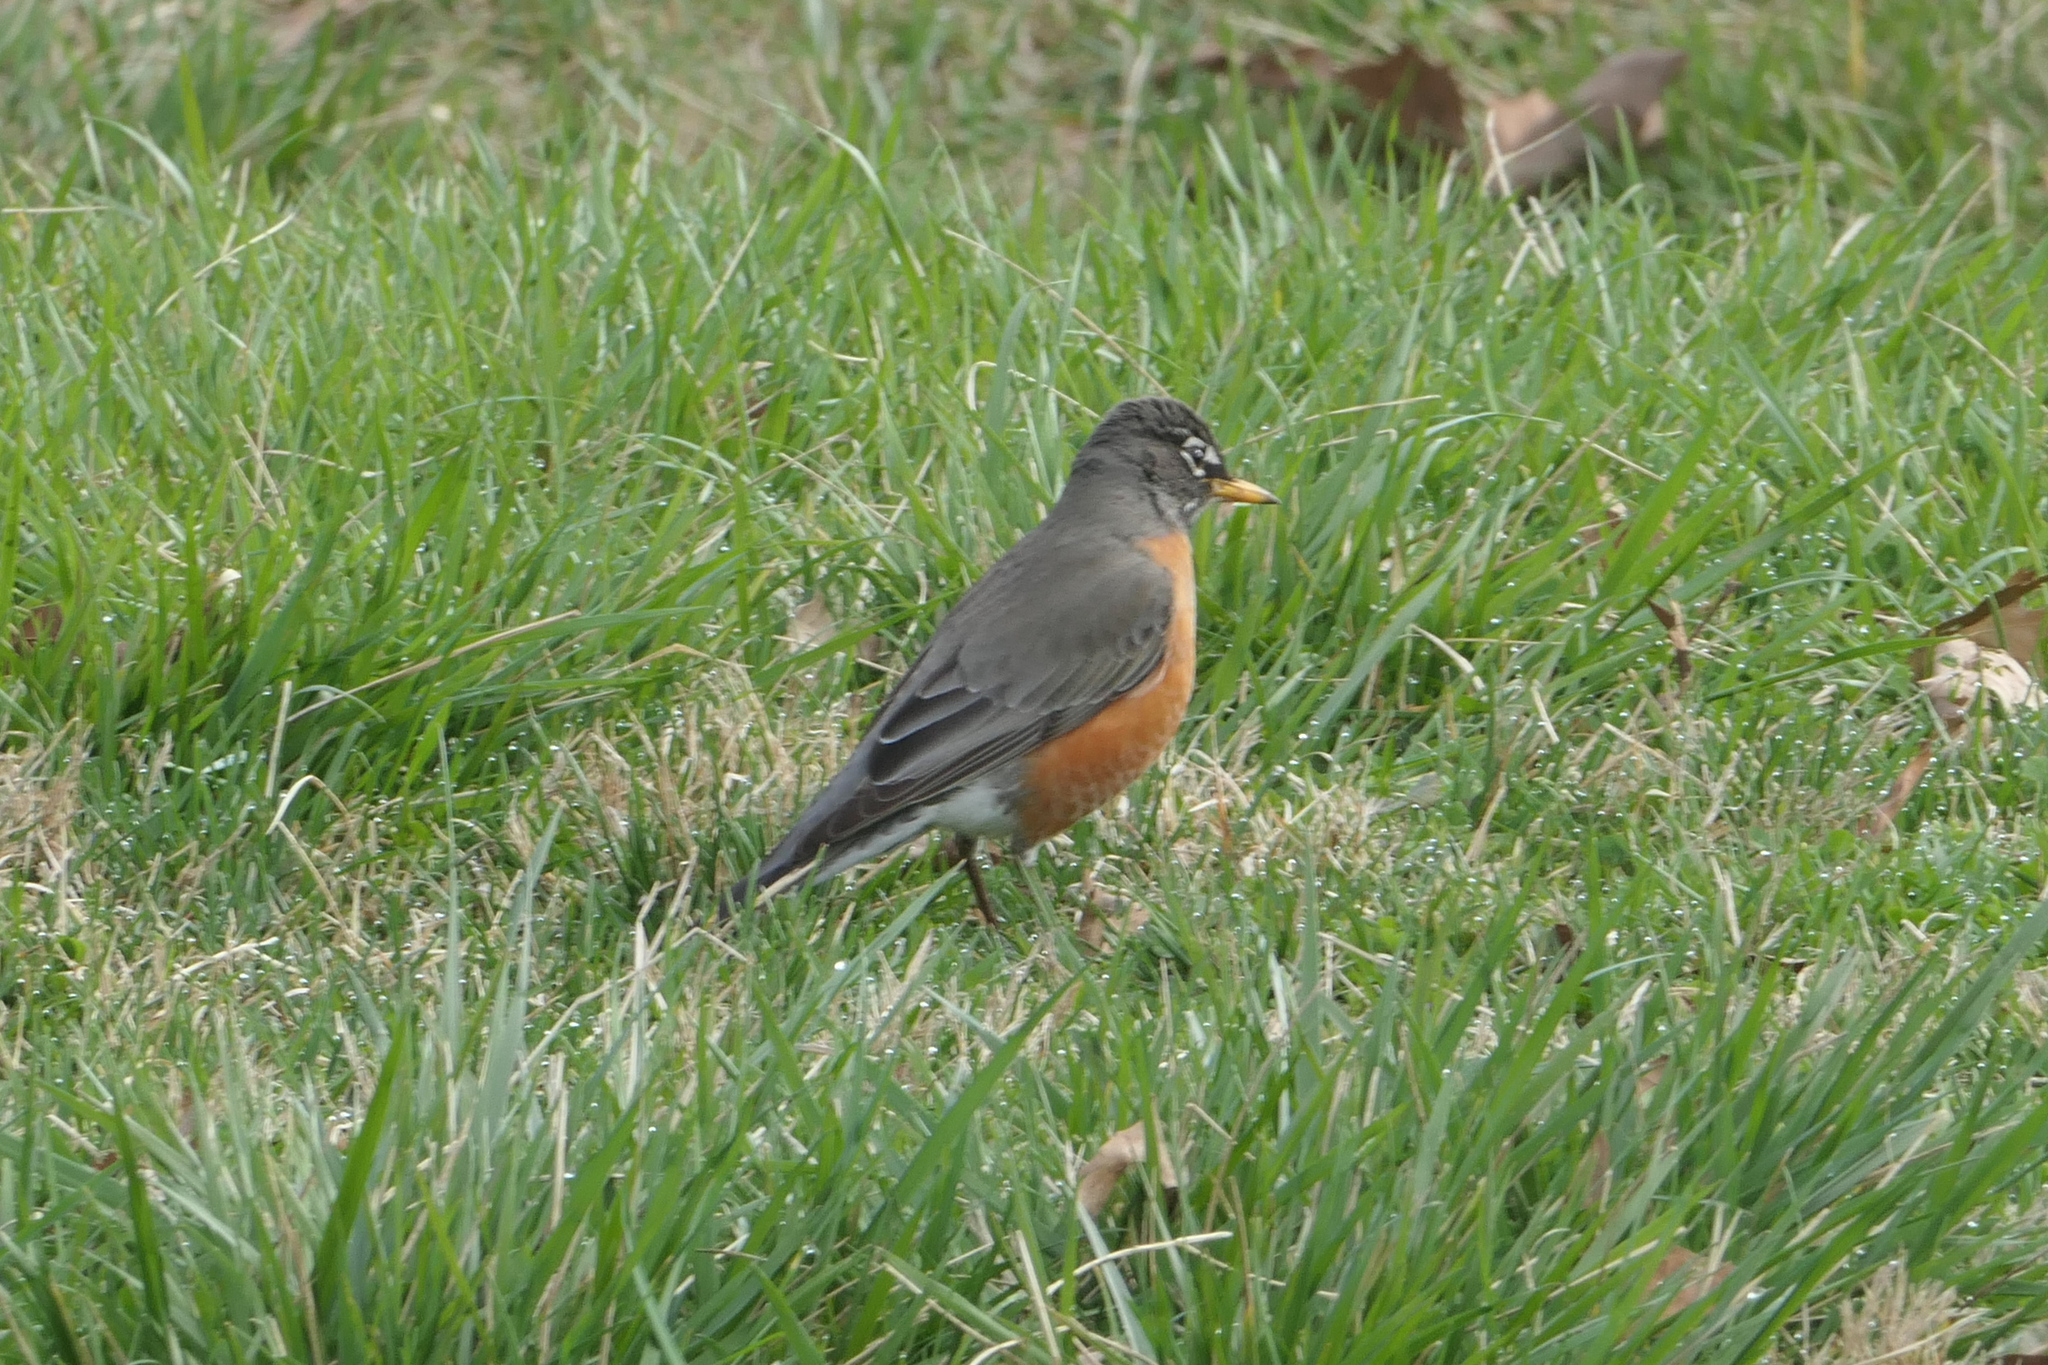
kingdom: Animalia
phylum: Chordata
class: Aves
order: Passeriformes
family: Turdidae
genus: Turdus
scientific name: Turdus migratorius
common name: American robin
